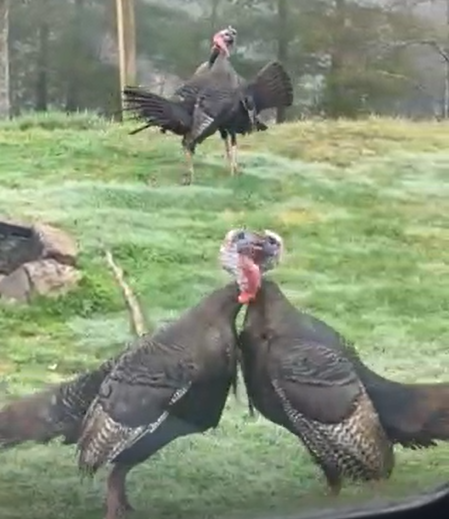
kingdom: Animalia
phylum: Chordata
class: Aves
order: Galliformes
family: Phasianidae
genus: Meleagris
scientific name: Meleagris gallopavo
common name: Wild turkey
